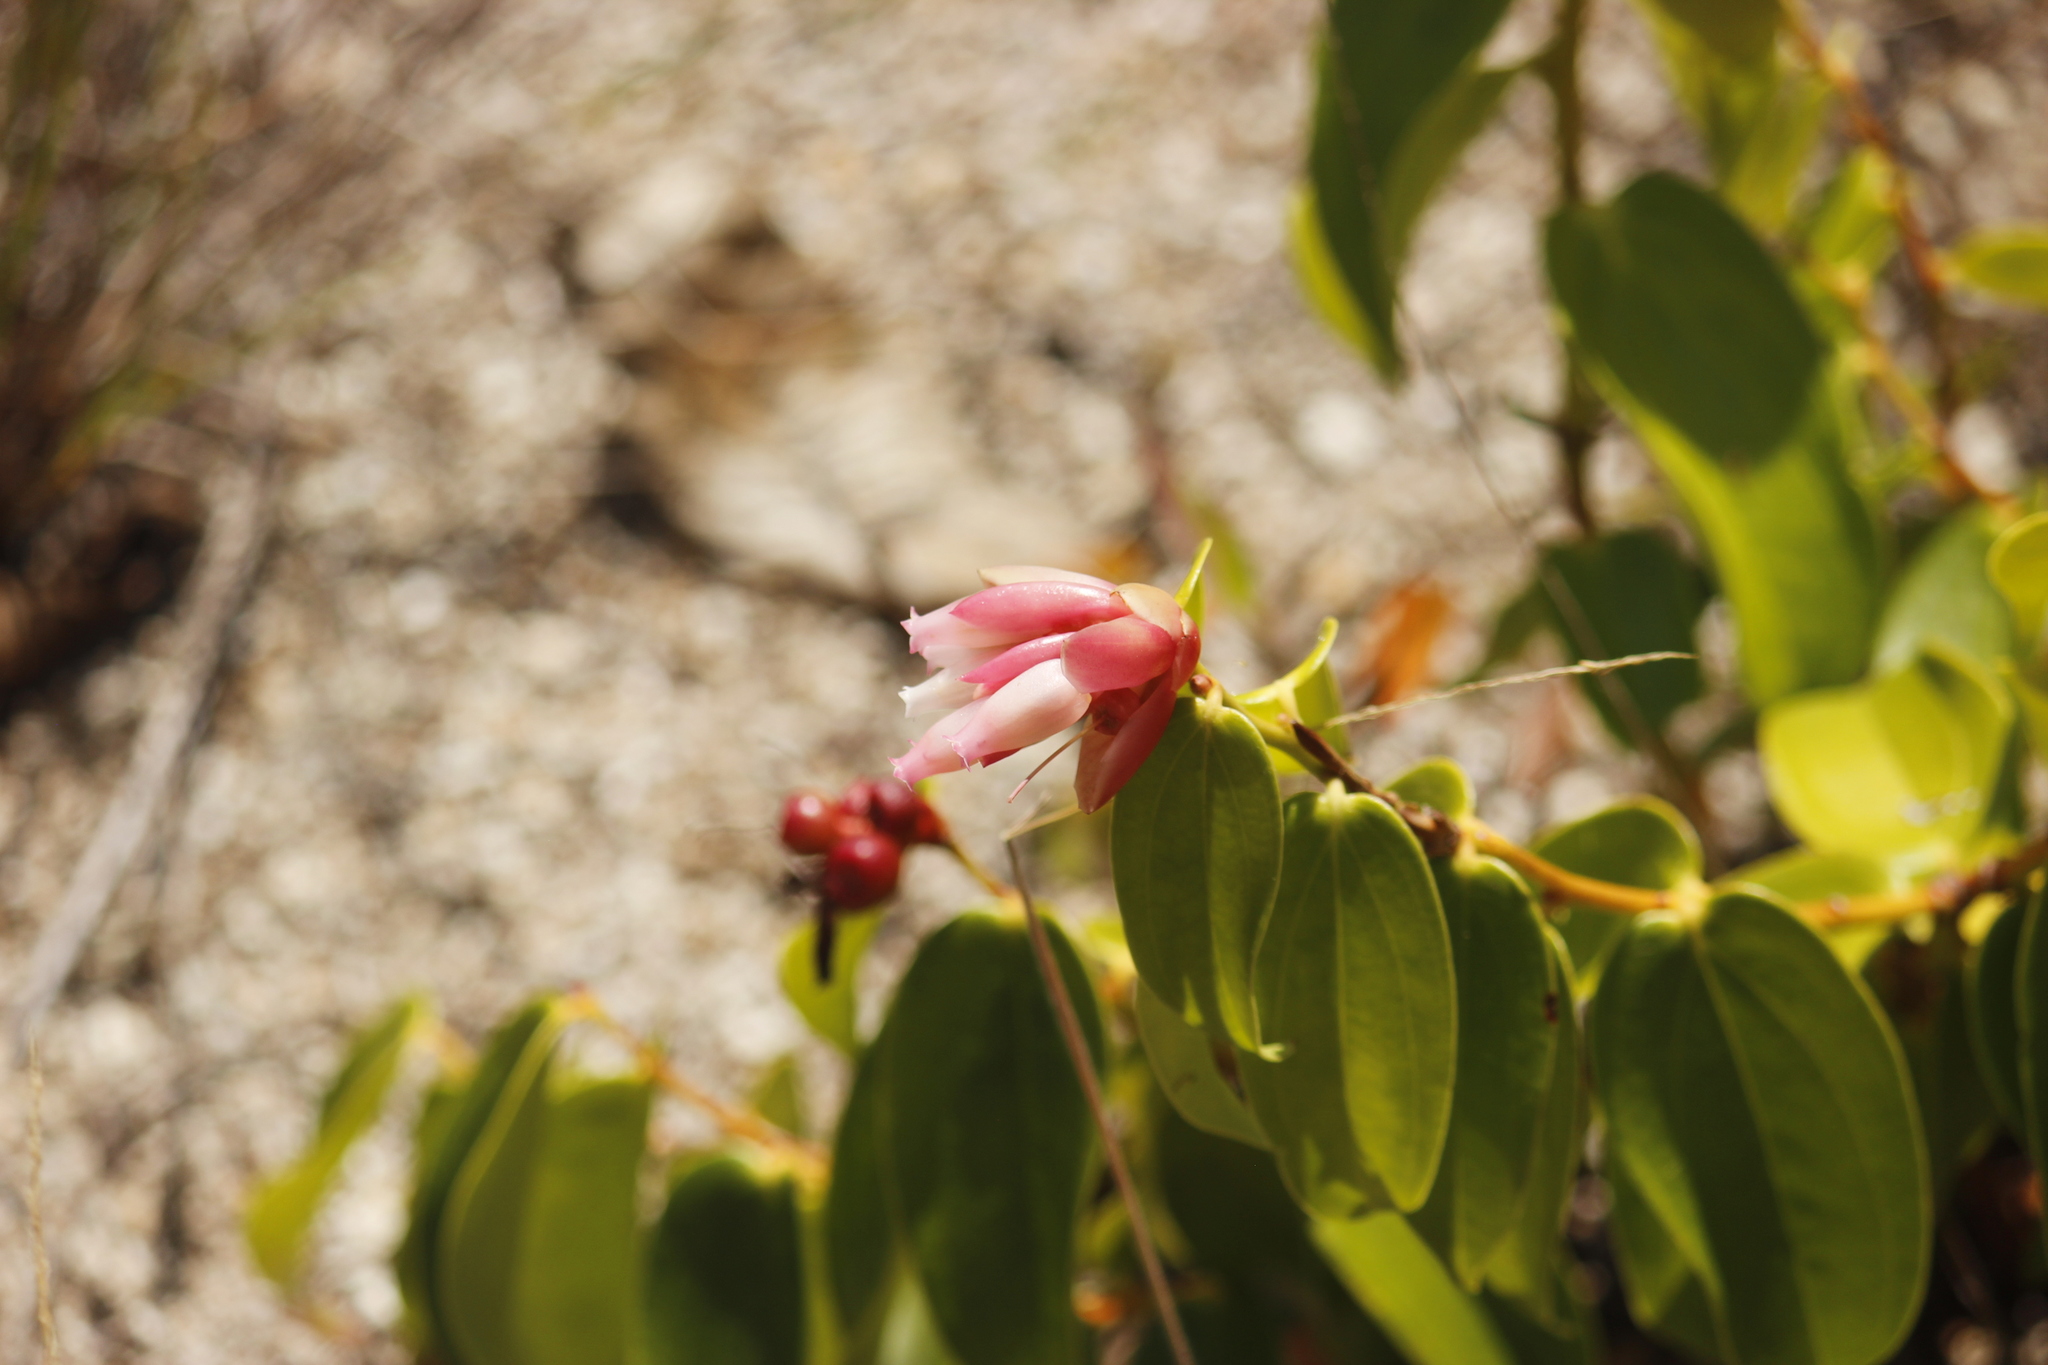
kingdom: Plantae
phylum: Tracheophyta
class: Magnoliopsida
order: Ericales
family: Ericaceae
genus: Cavendishia
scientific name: Cavendishia bracteata
